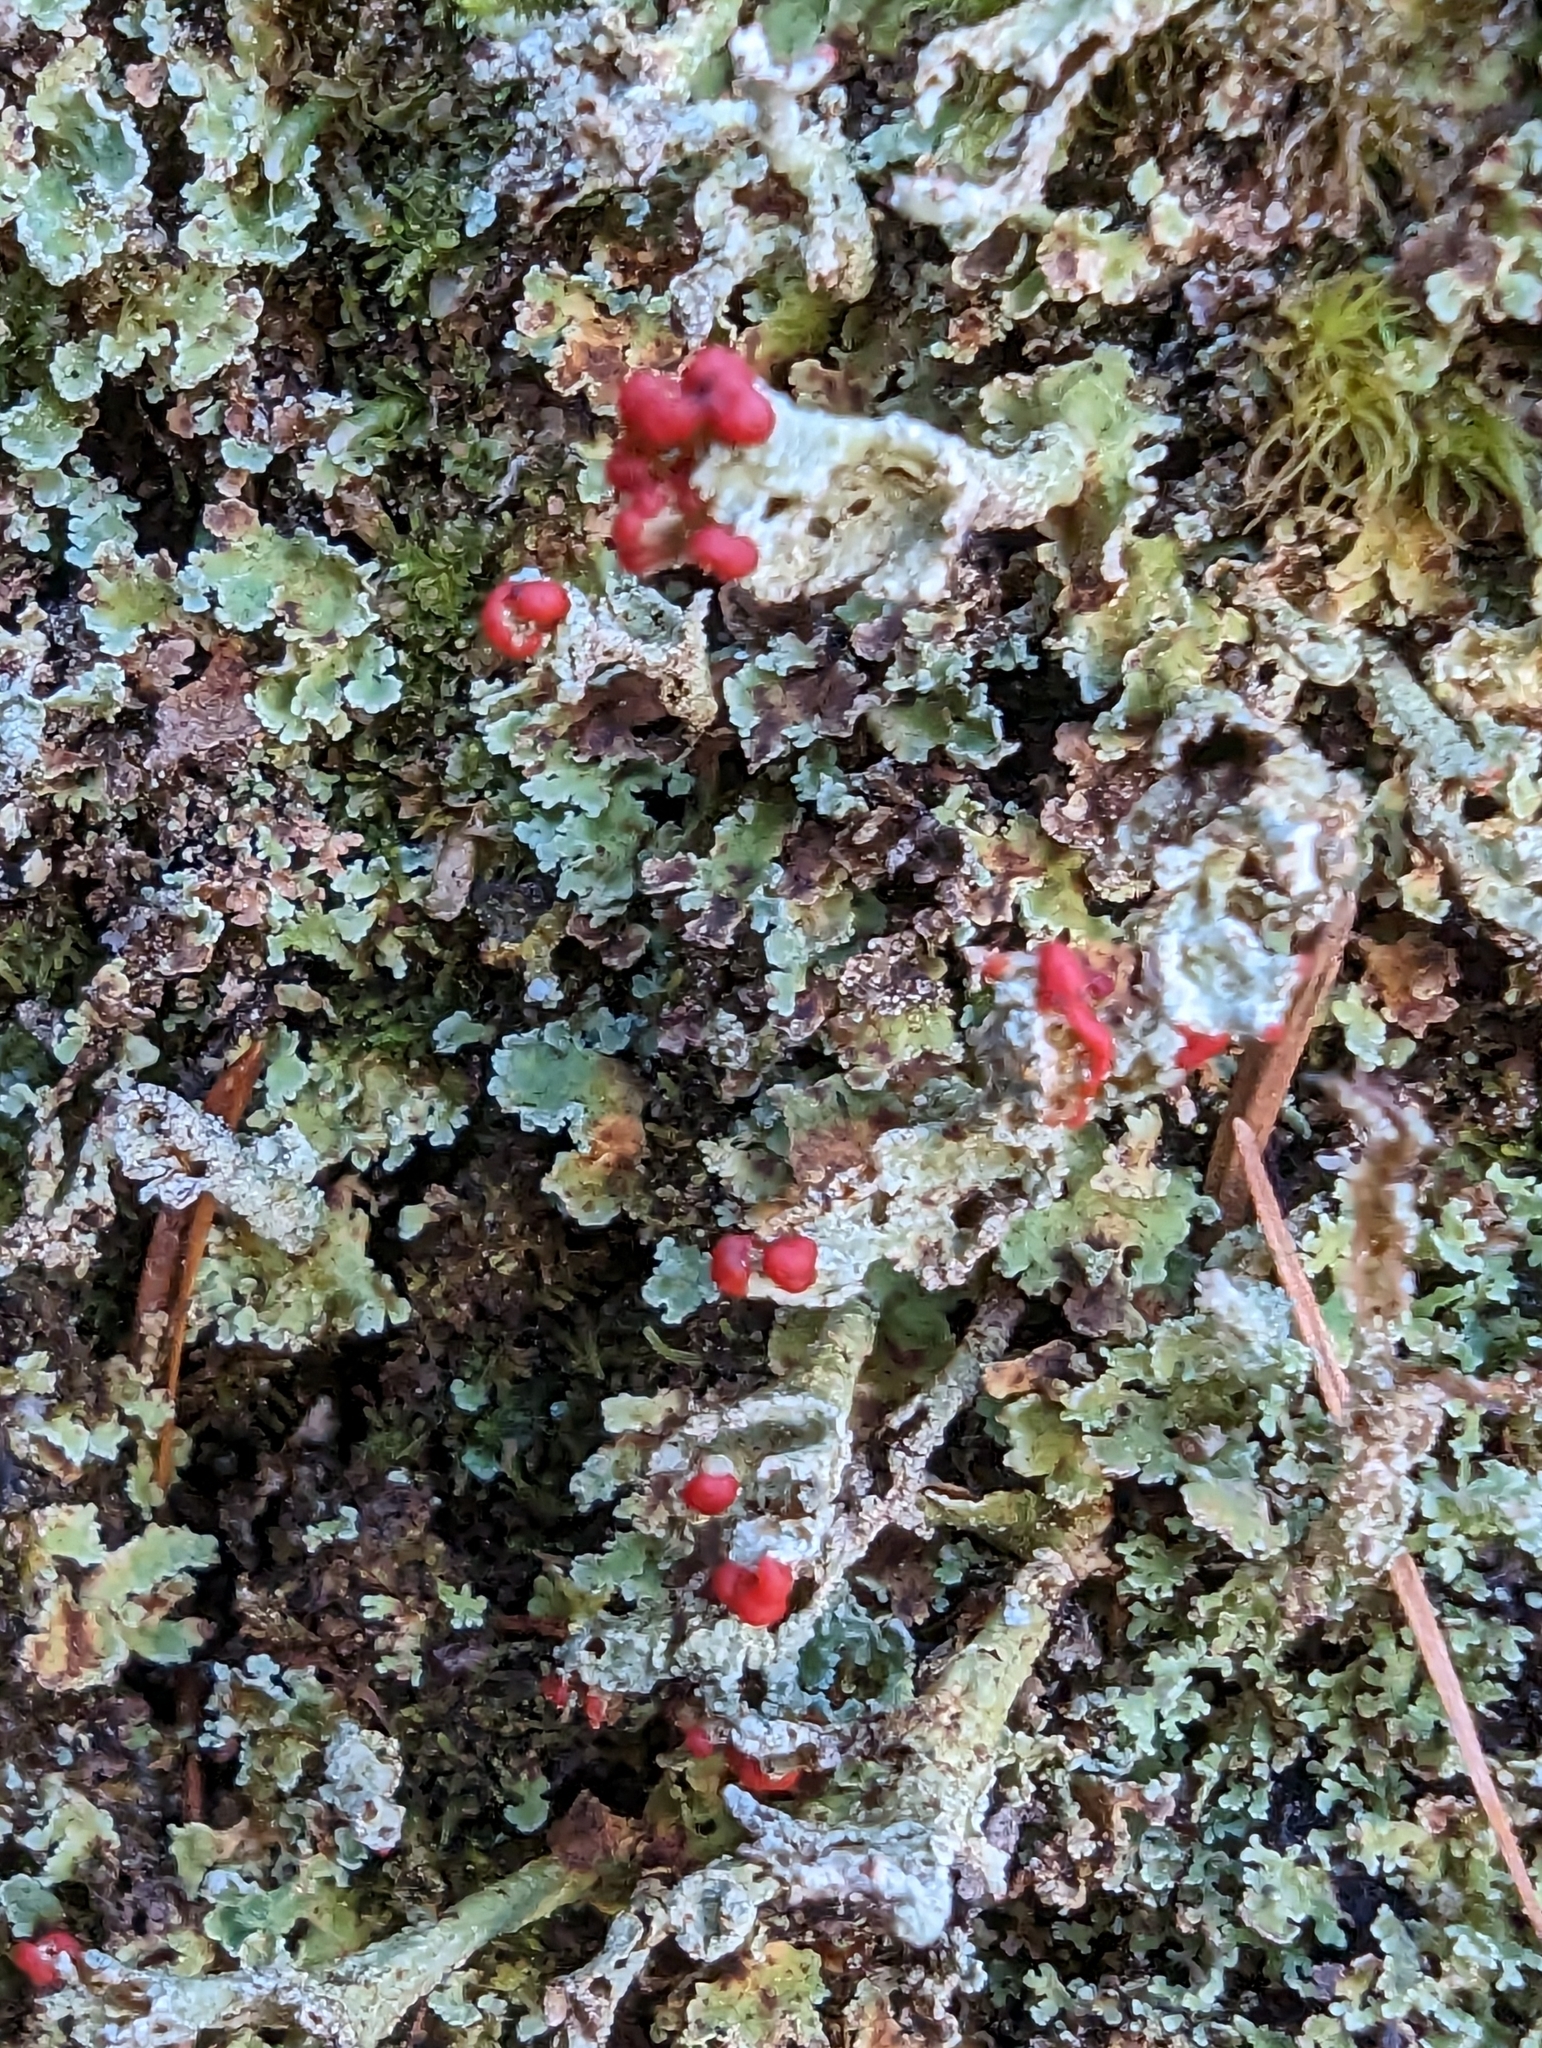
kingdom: Fungi
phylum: Ascomycota
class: Lecanoromycetes
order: Lecanorales
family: Cladoniaceae
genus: Cladonia
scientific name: Cladonia digitata
